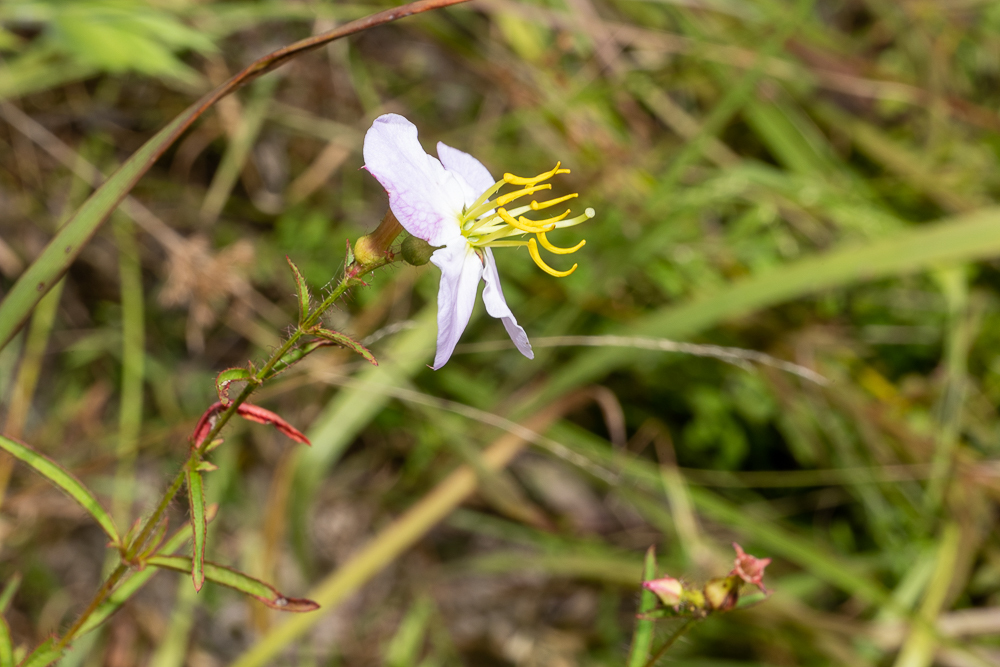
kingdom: Plantae
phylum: Tracheophyta
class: Magnoliopsida
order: Myrtales
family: Melastomataceae
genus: Rhexia
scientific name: Rhexia mariana
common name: Dull meadow-pitcher
